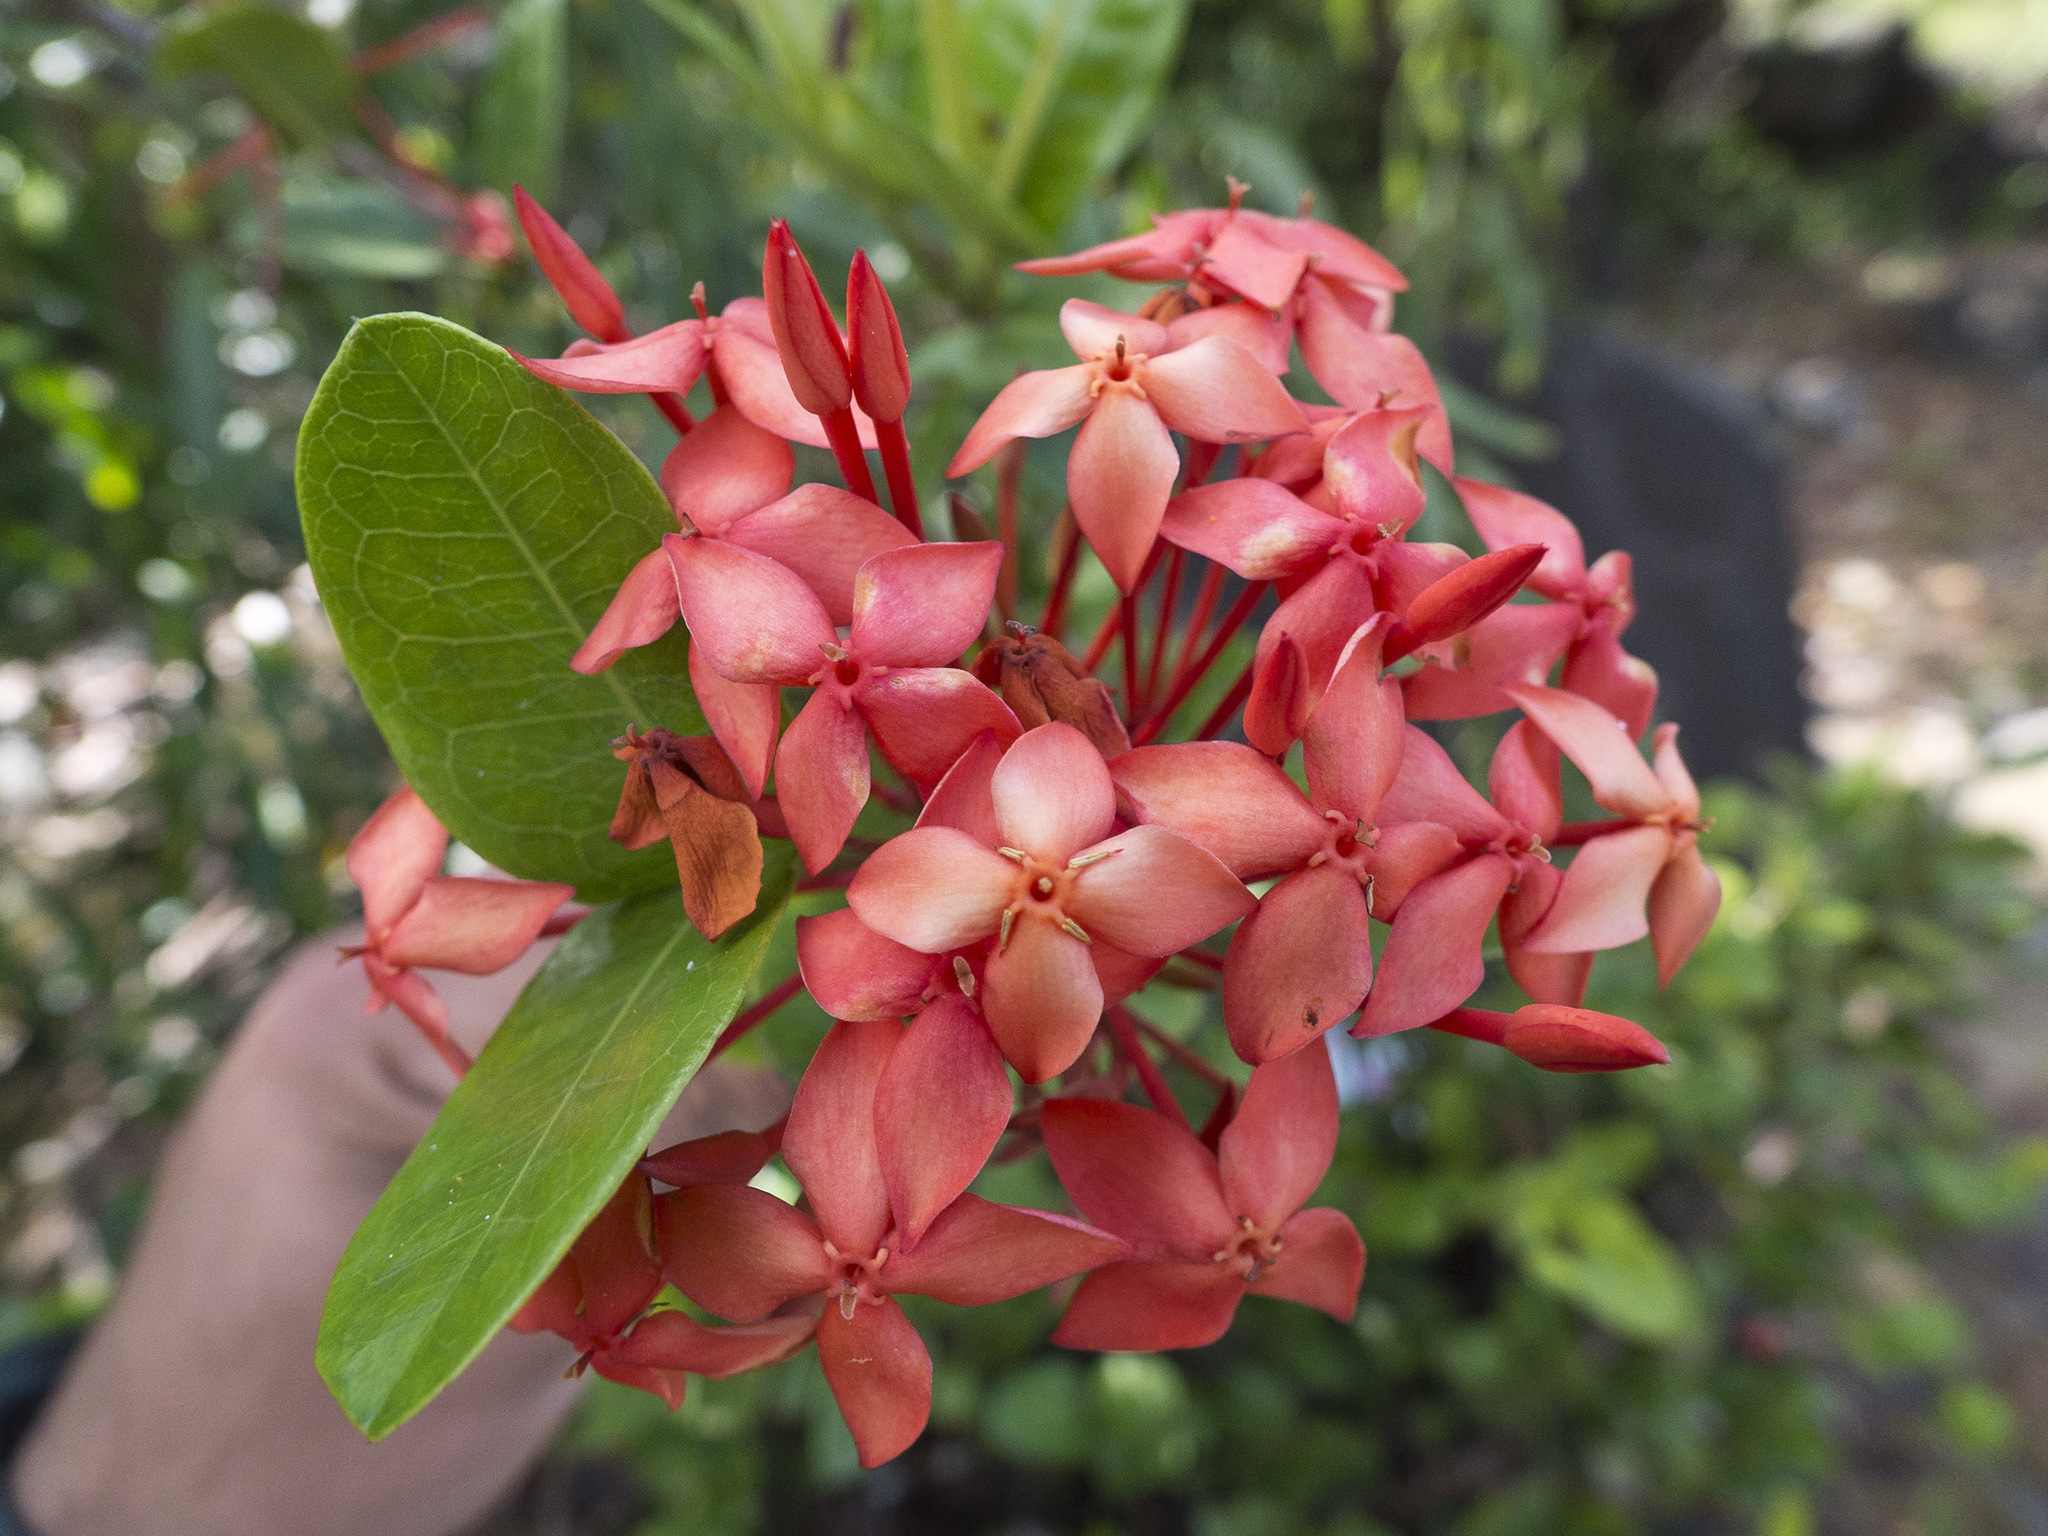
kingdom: Plantae
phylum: Tracheophyta
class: Magnoliopsida
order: Gentianales
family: Rubiaceae
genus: Ixora
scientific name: Ixora coccinea
